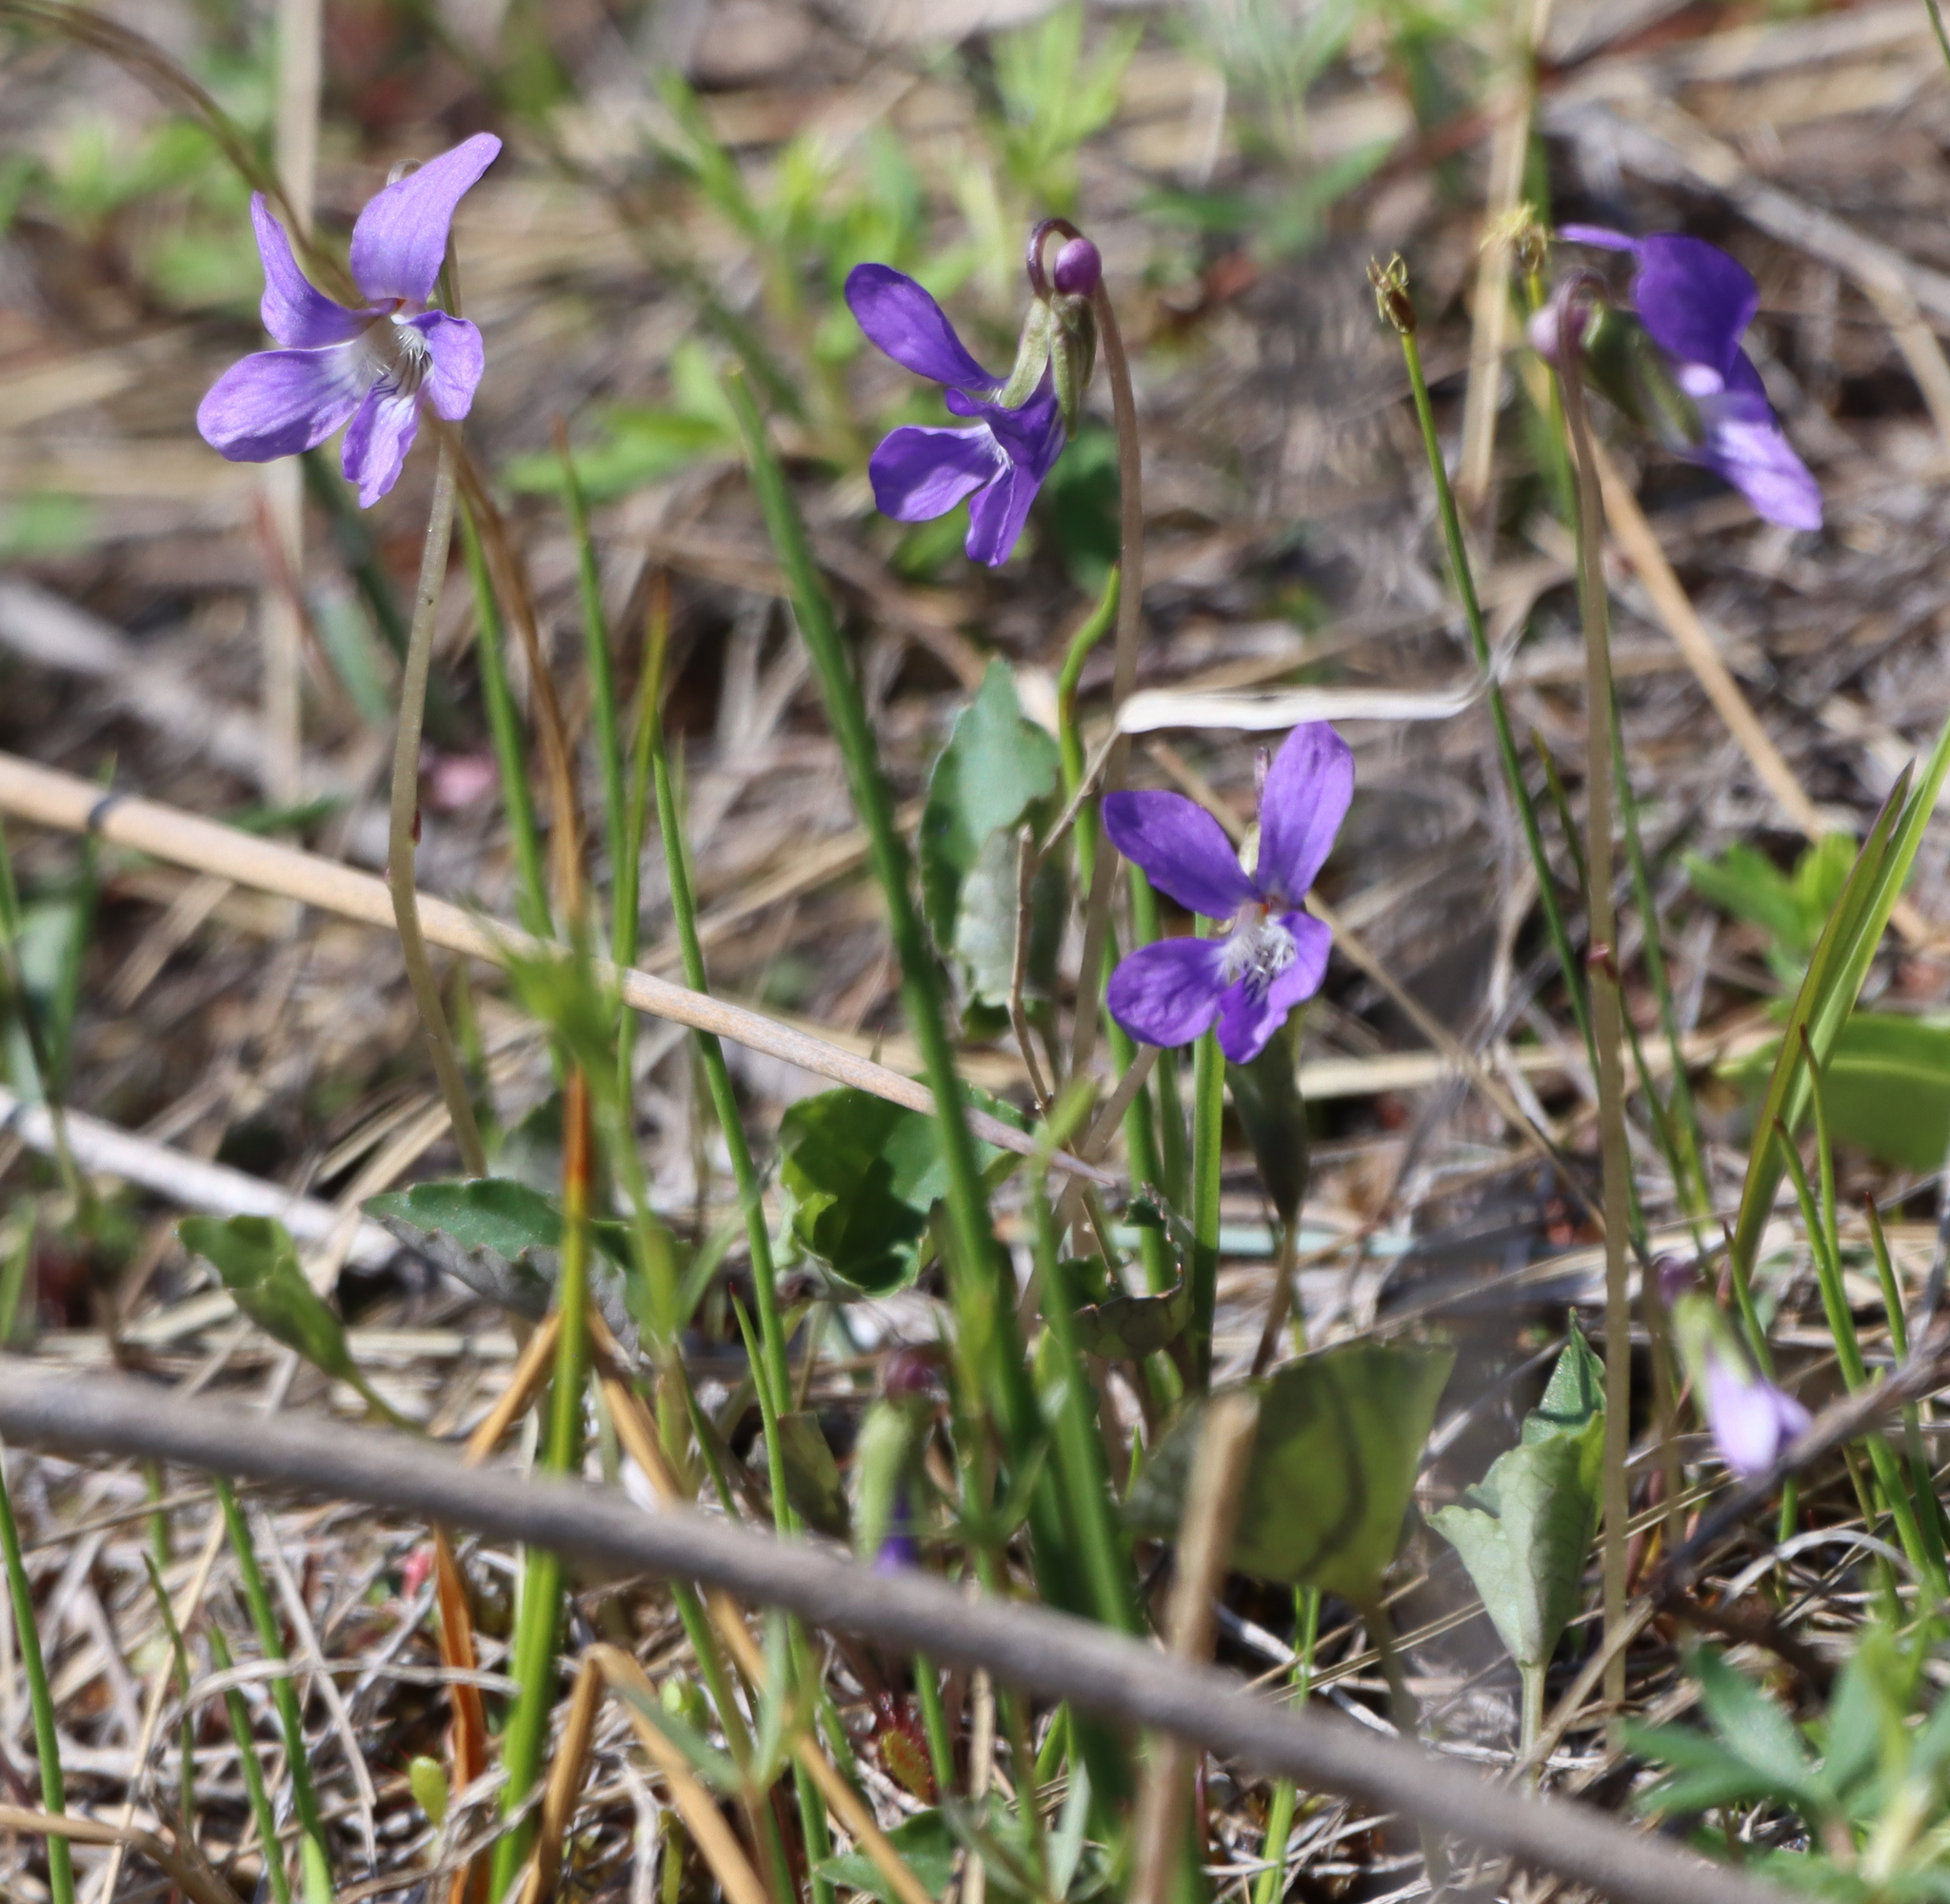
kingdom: Plantae
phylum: Tracheophyta
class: Magnoliopsida
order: Malpighiales
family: Violaceae
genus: Viola
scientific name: Viola nephrophylla
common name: Blue meadow violet
